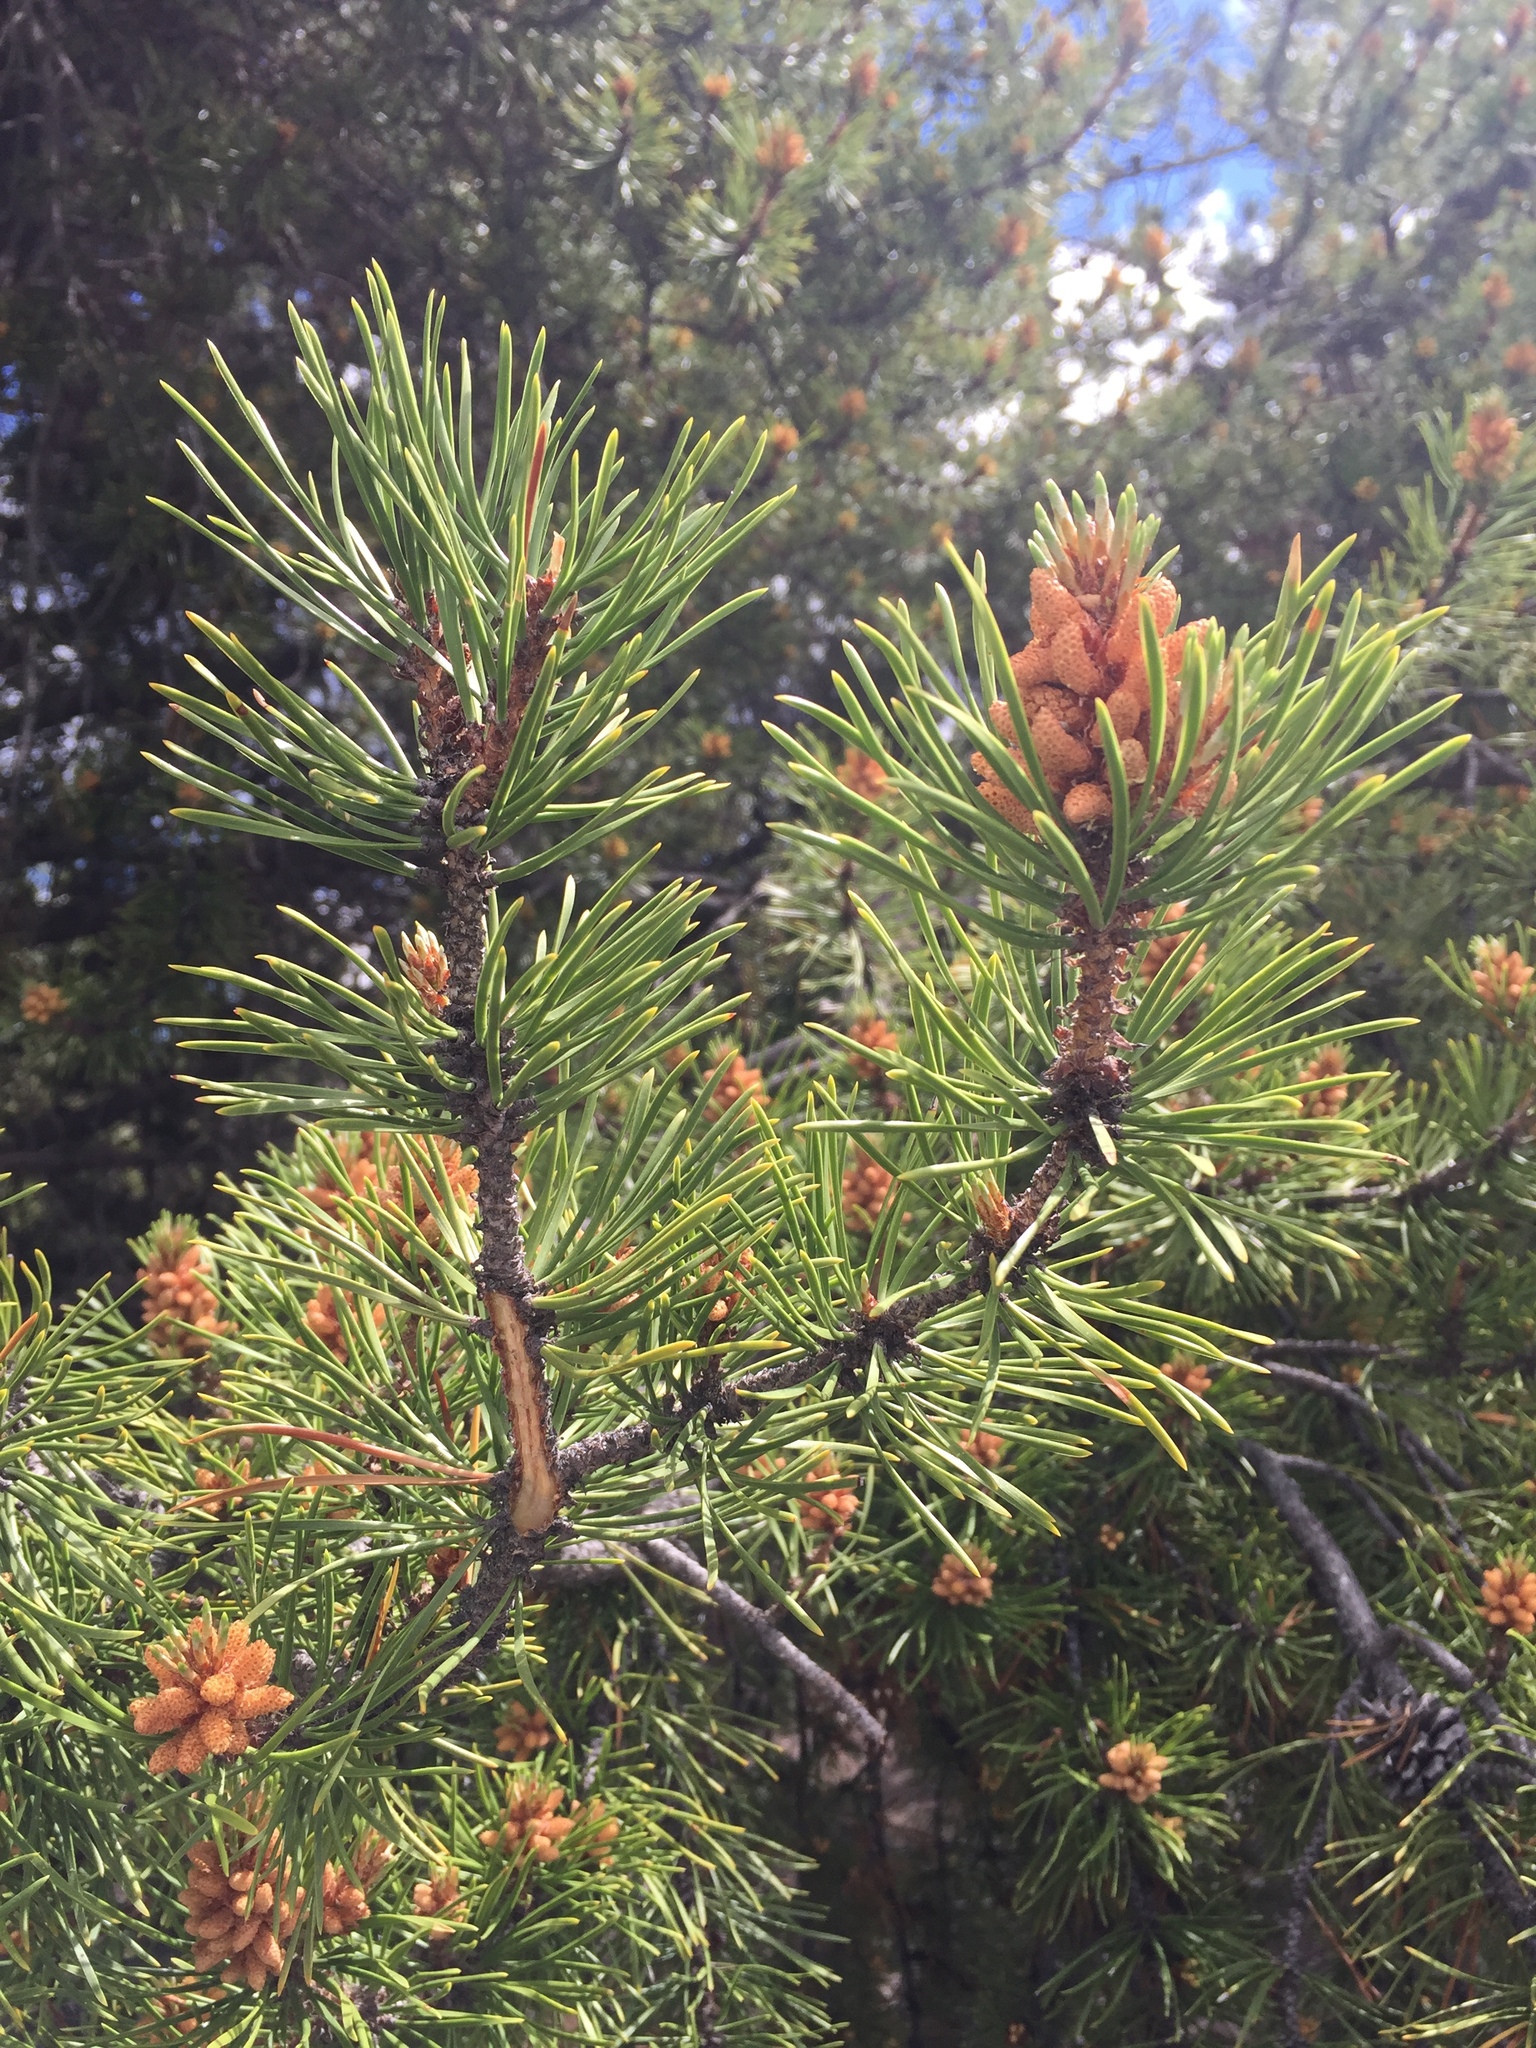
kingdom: Plantae
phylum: Tracheophyta
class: Pinopsida
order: Pinales
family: Pinaceae
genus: Pinus
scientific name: Pinus contorta
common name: Lodgepole pine
